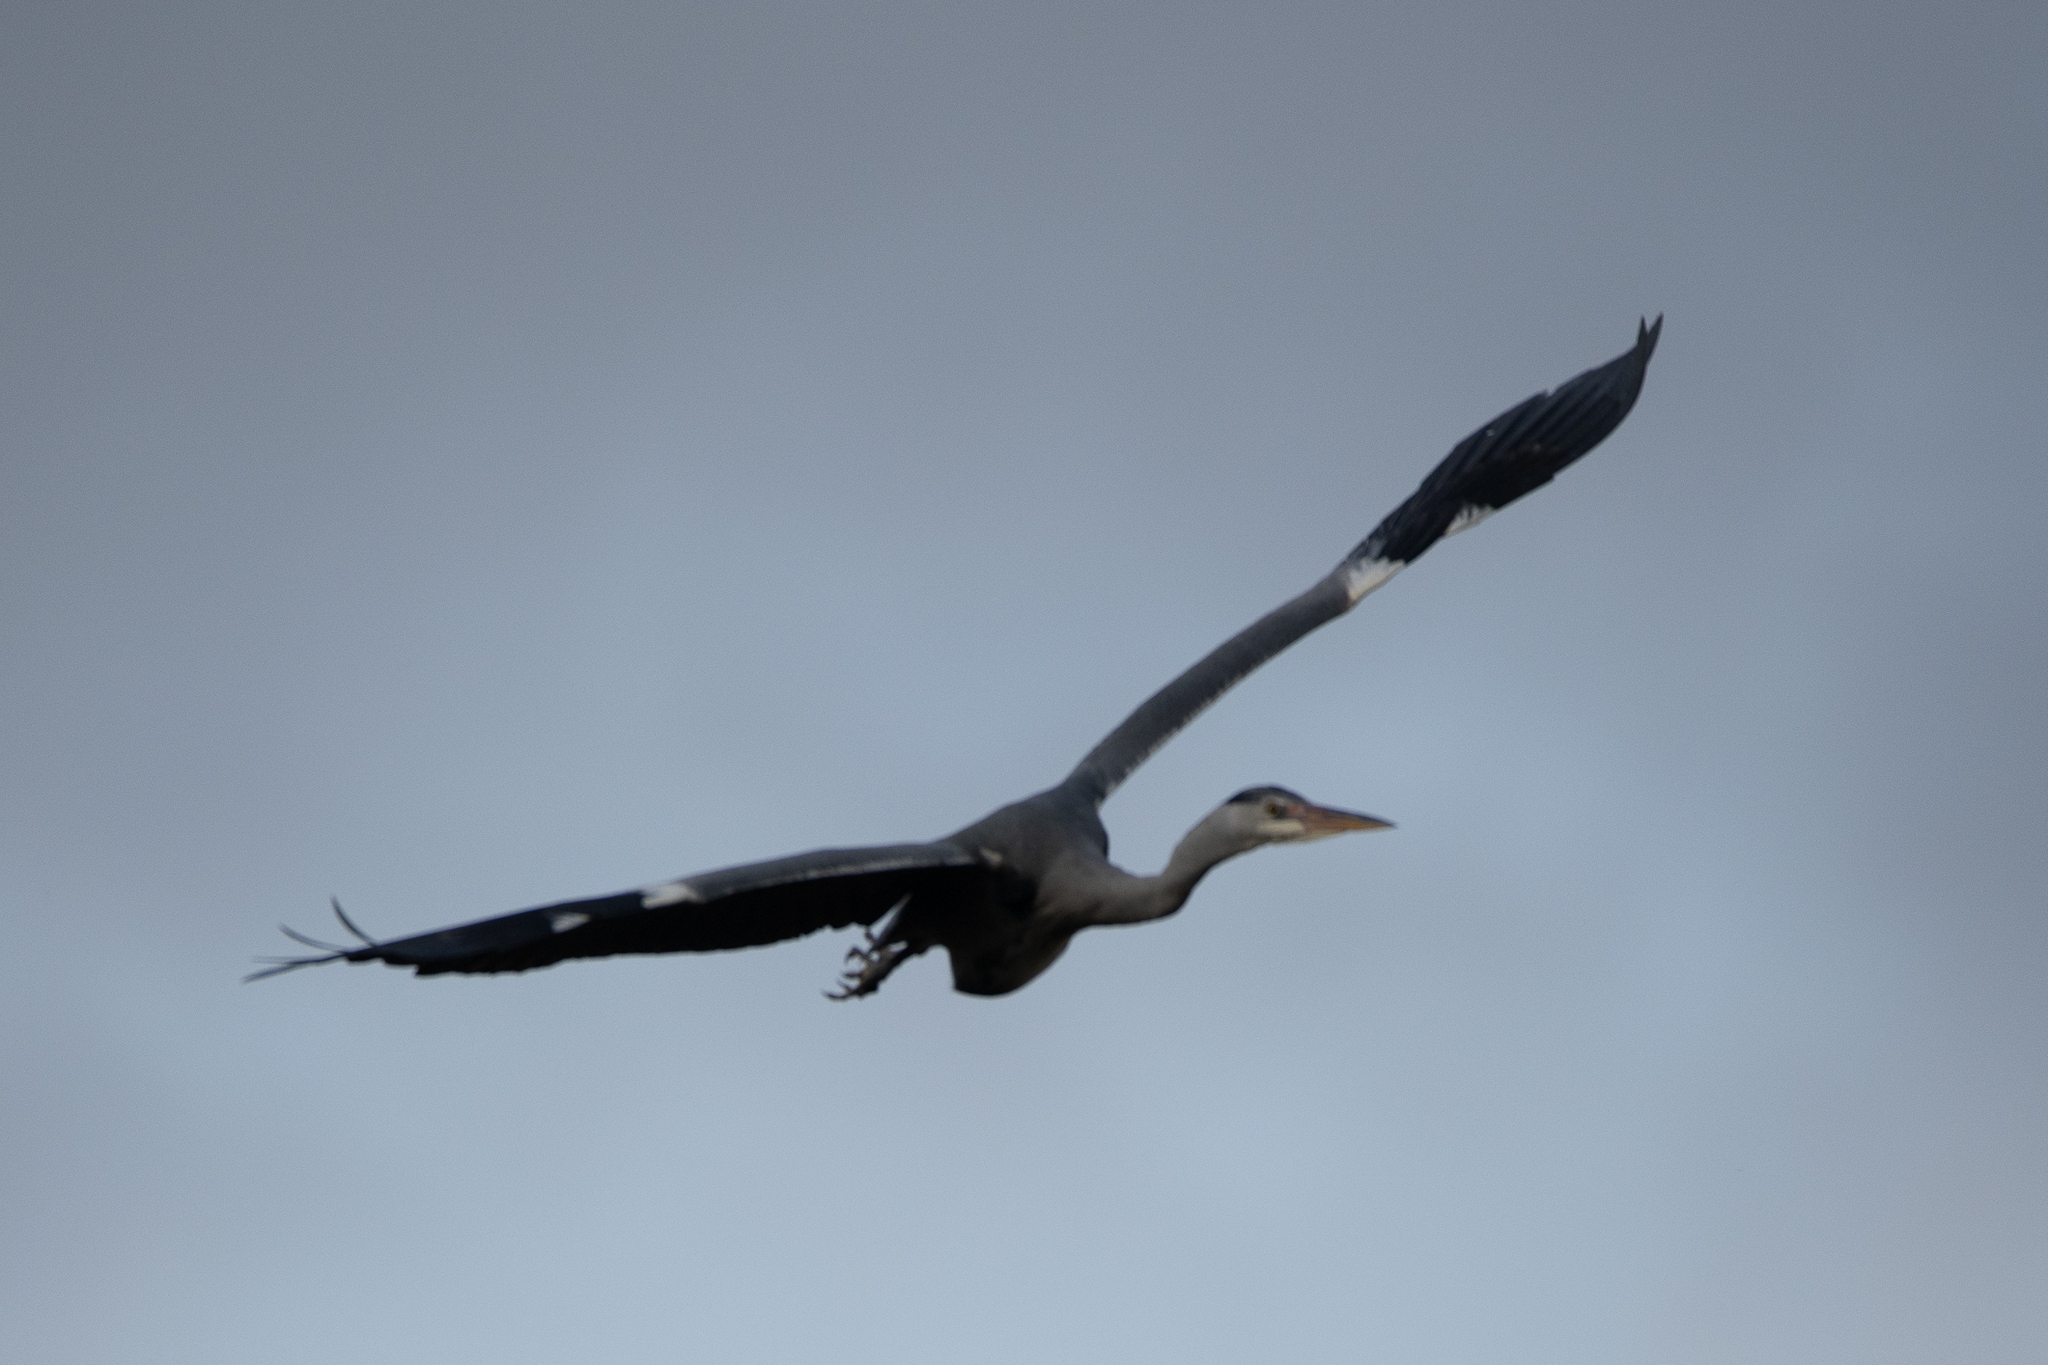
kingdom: Animalia
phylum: Chordata
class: Aves
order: Pelecaniformes
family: Ardeidae
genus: Ardea
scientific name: Ardea cinerea
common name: Grey heron
